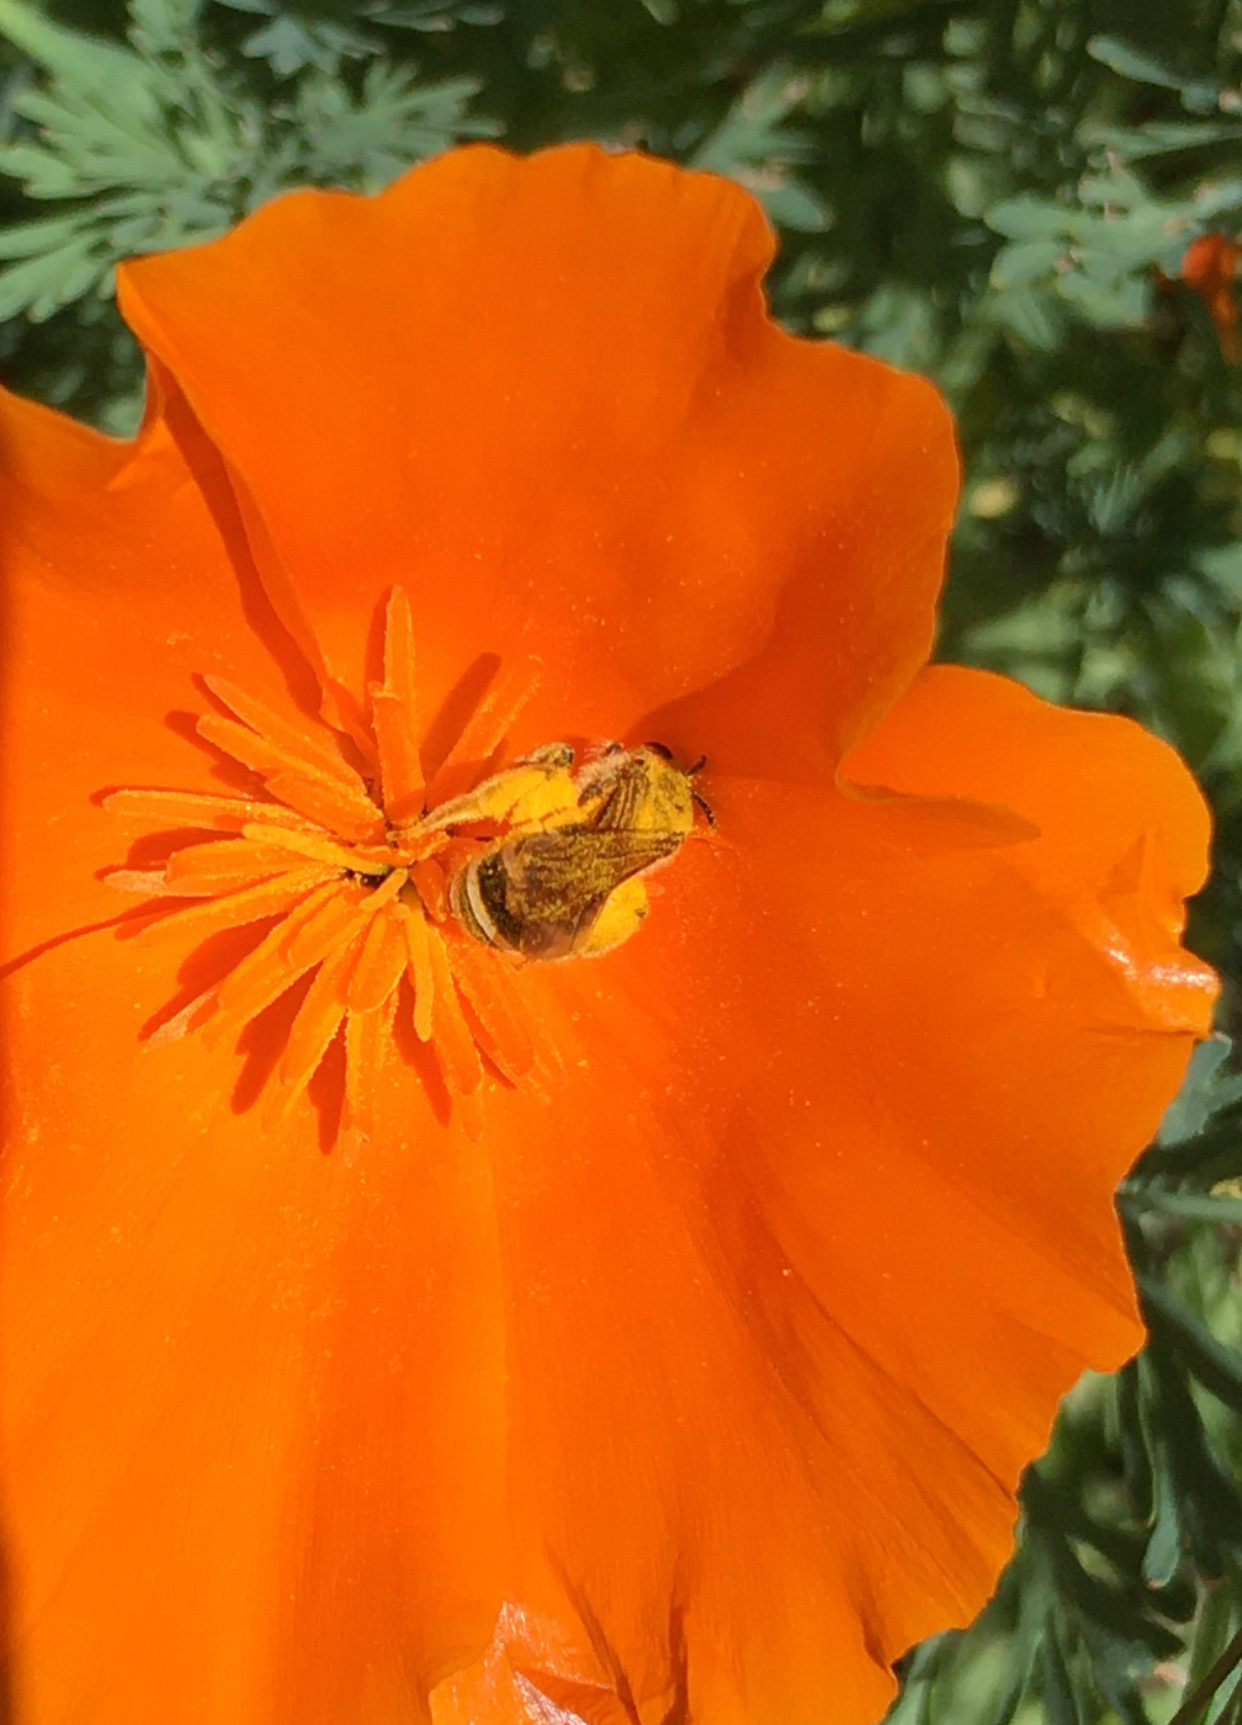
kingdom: Animalia
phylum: Arthropoda
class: Insecta
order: Hymenoptera
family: Halictidae
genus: Halictus
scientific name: Halictus farinosus
